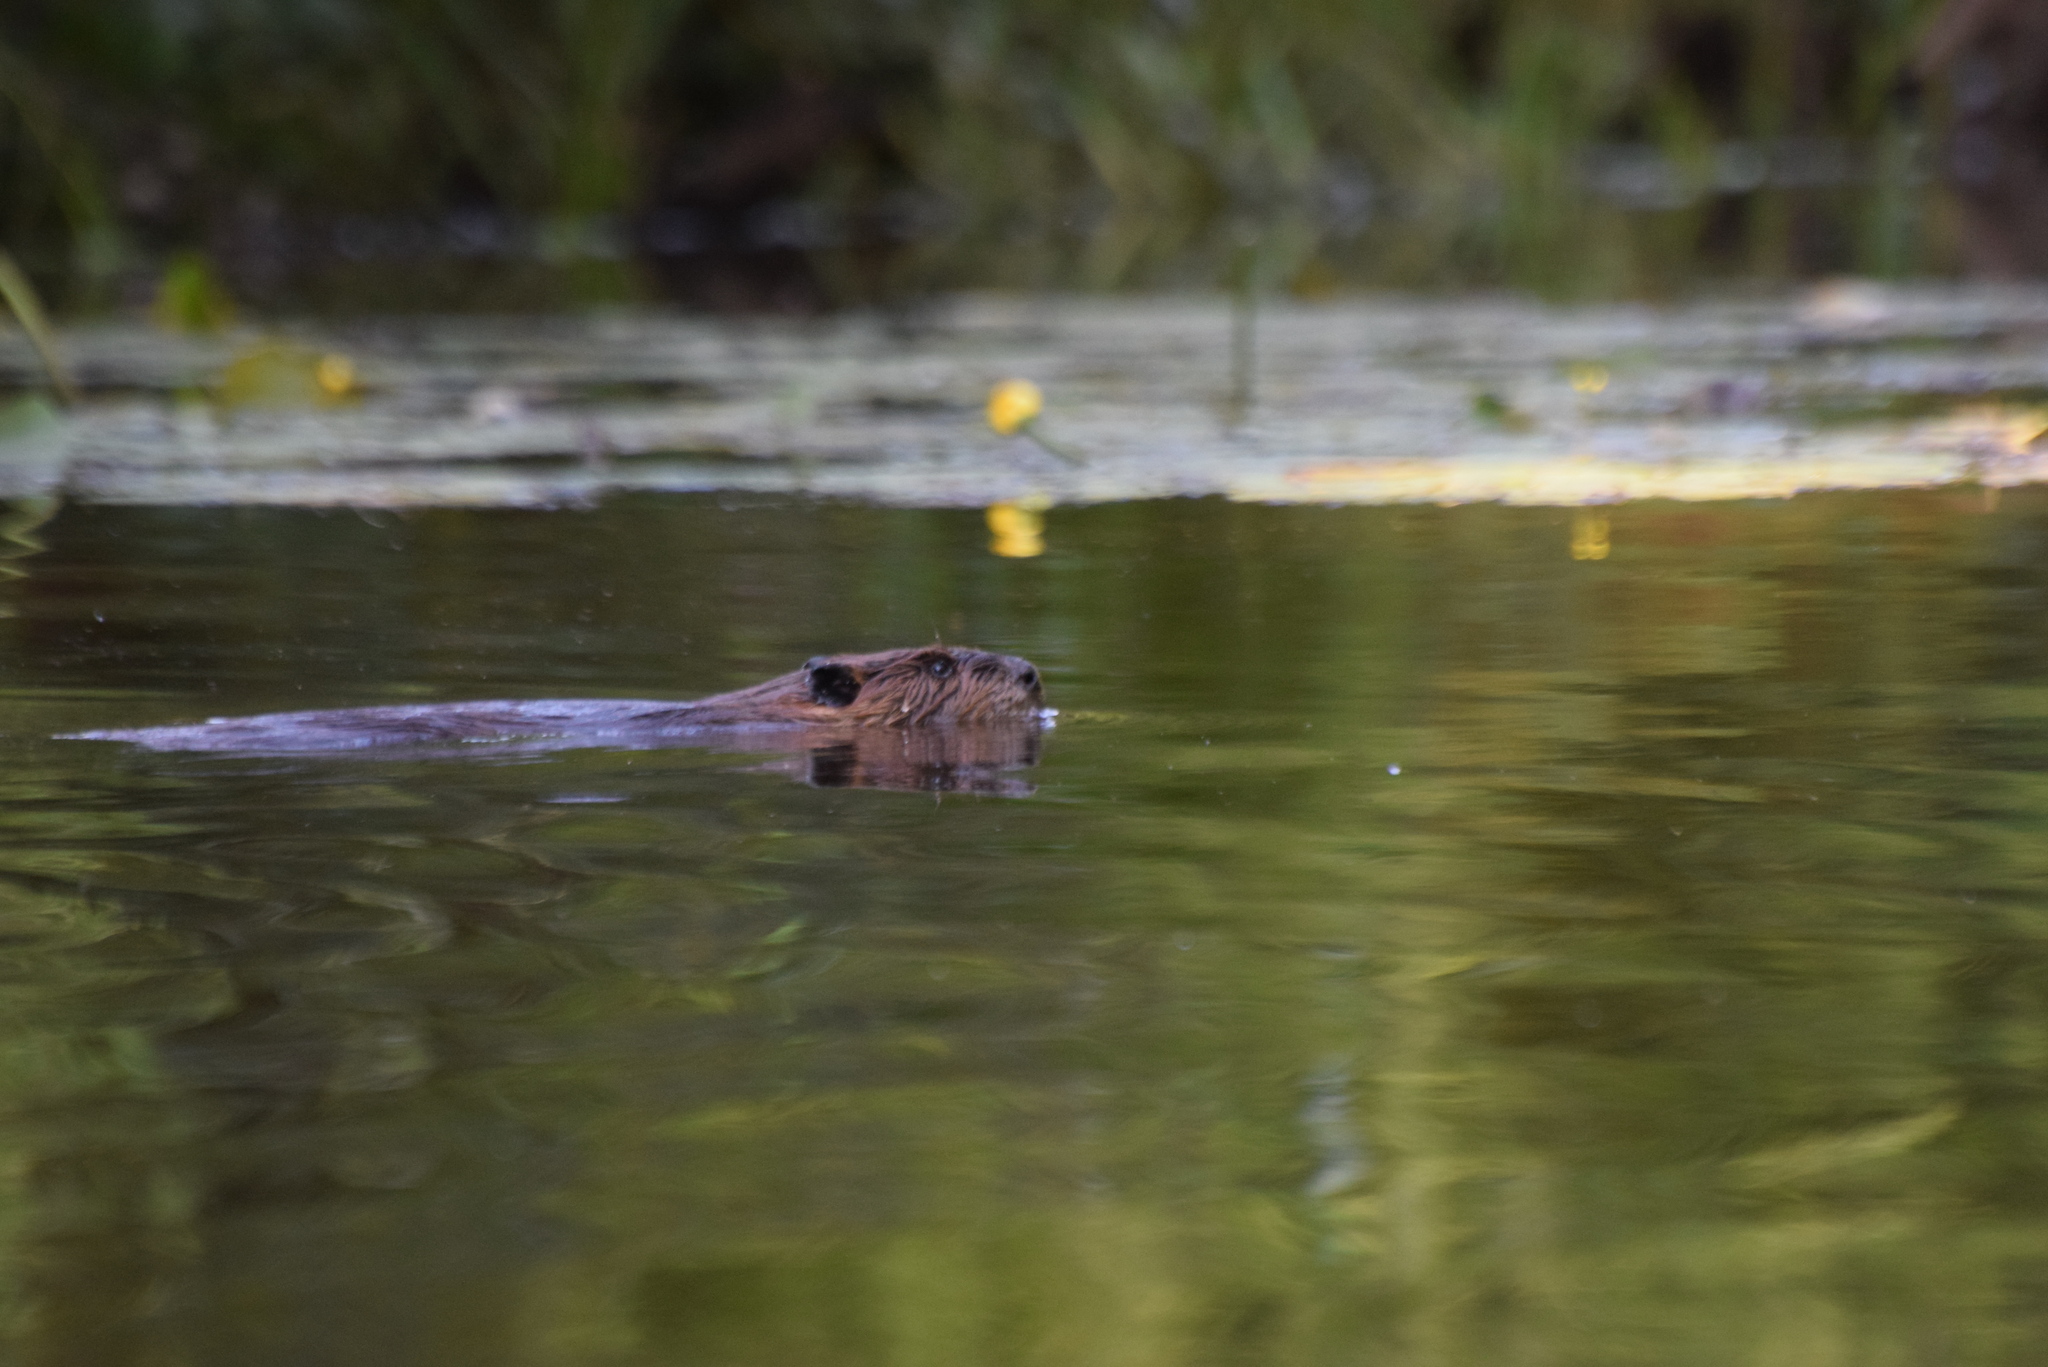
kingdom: Animalia
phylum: Chordata
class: Mammalia
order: Rodentia
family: Castoridae
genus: Castor
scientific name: Castor canadensis
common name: American beaver
